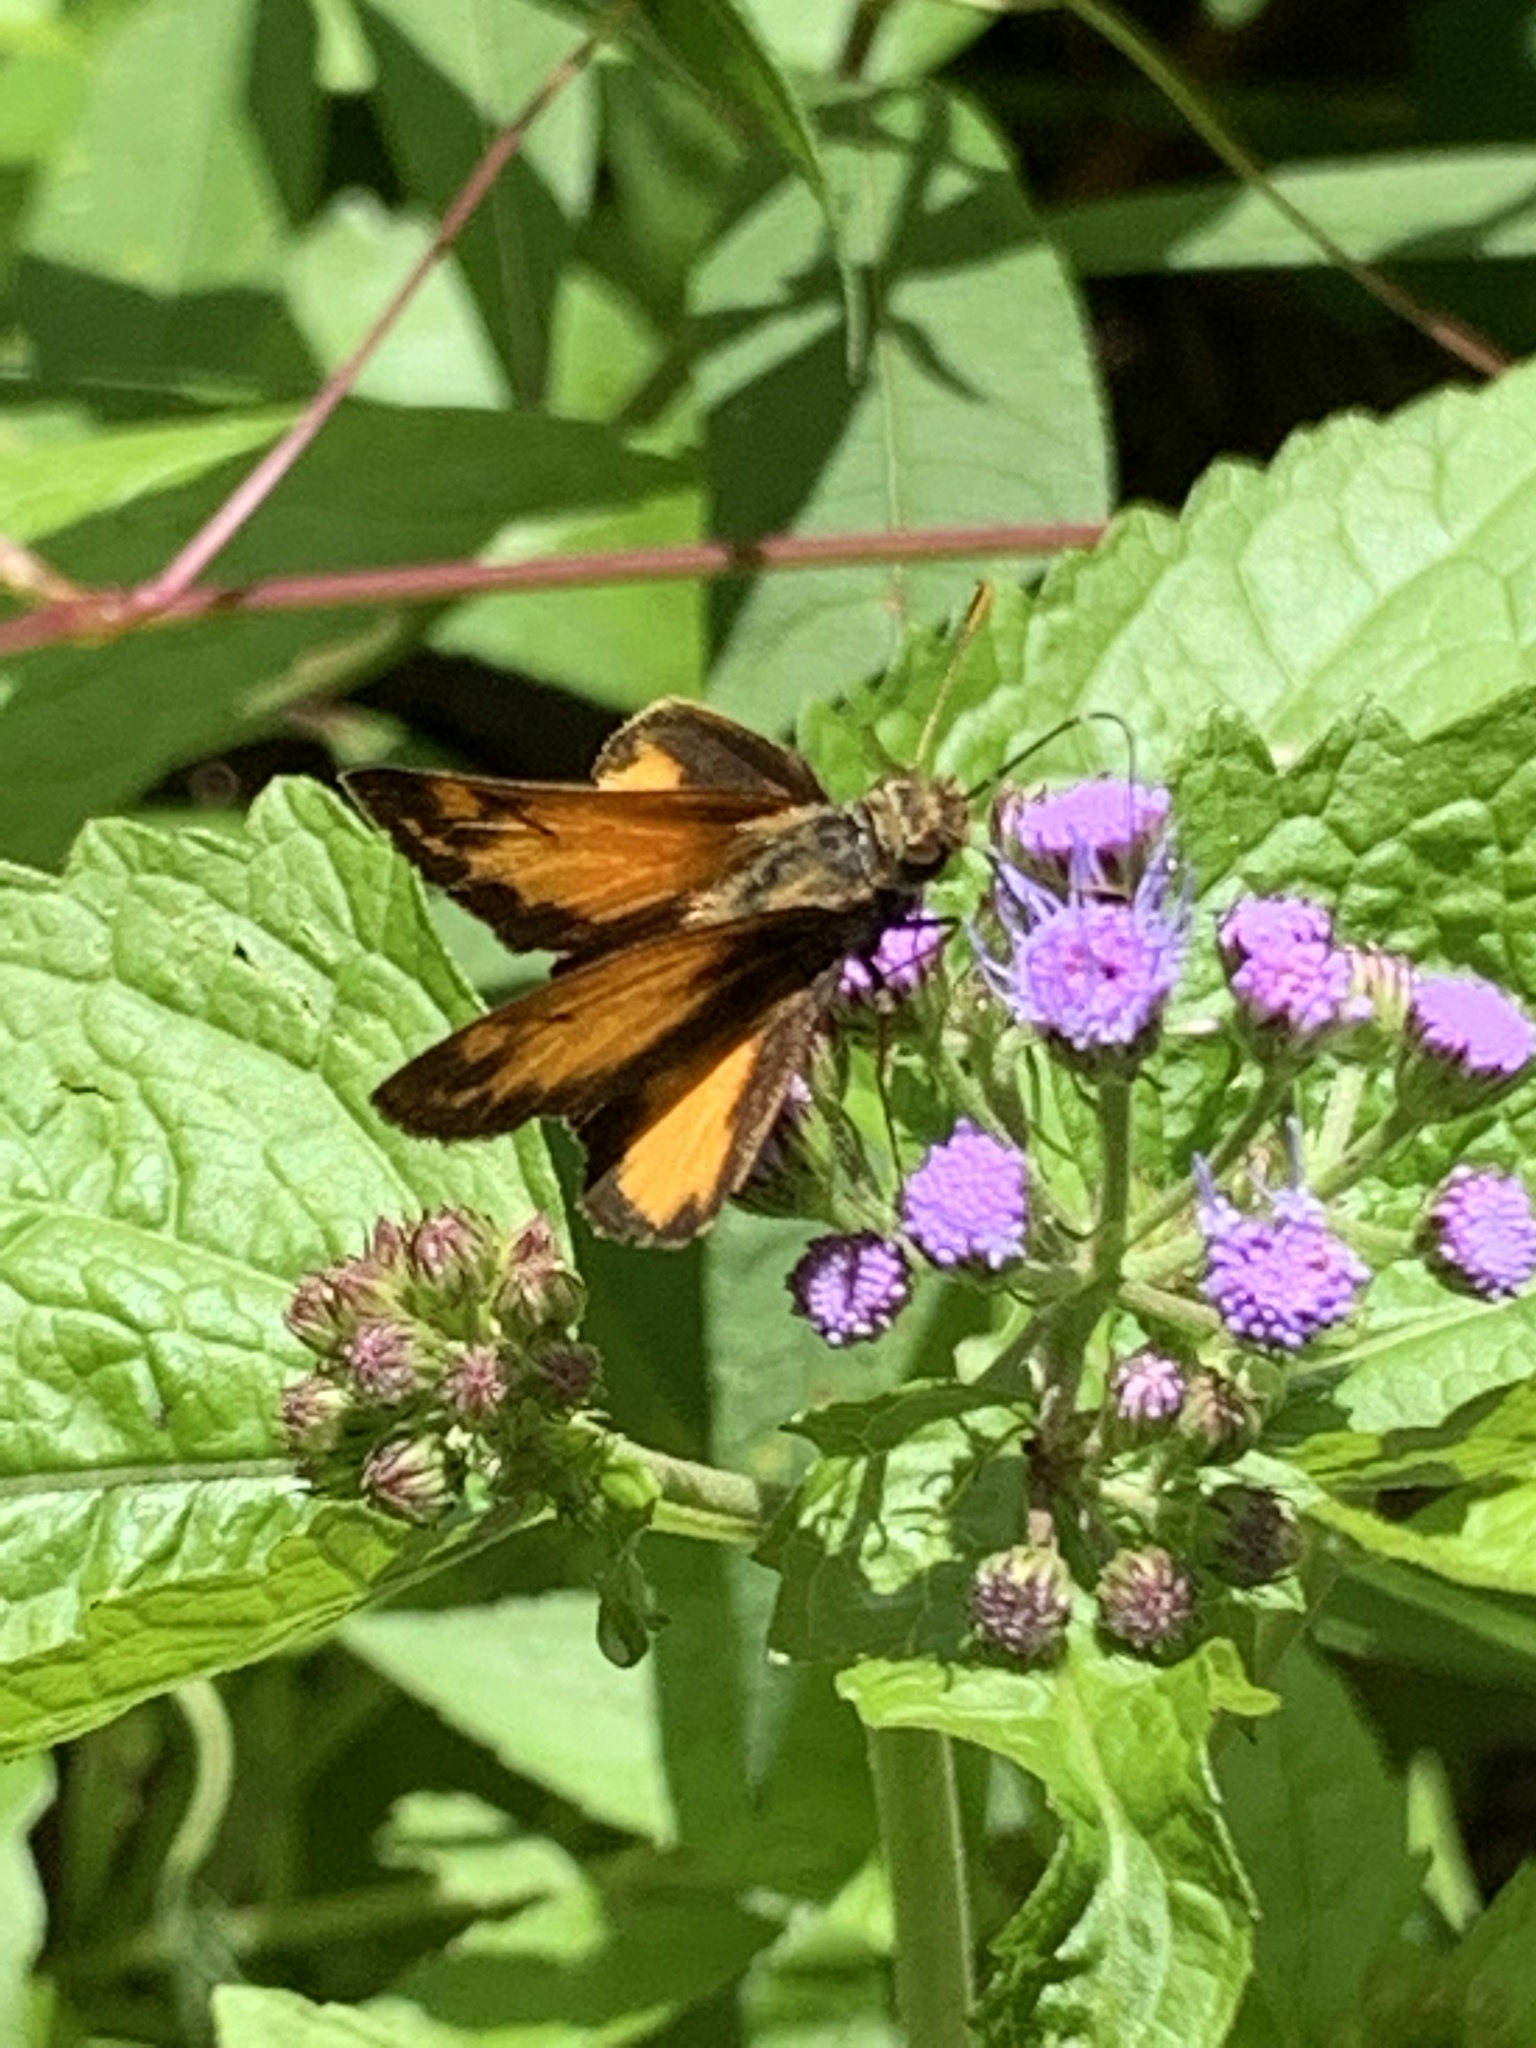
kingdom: Animalia
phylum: Arthropoda
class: Insecta
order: Lepidoptera
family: Hesperiidae
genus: Lon
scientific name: Lon zabulon
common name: Zabulon skipper
